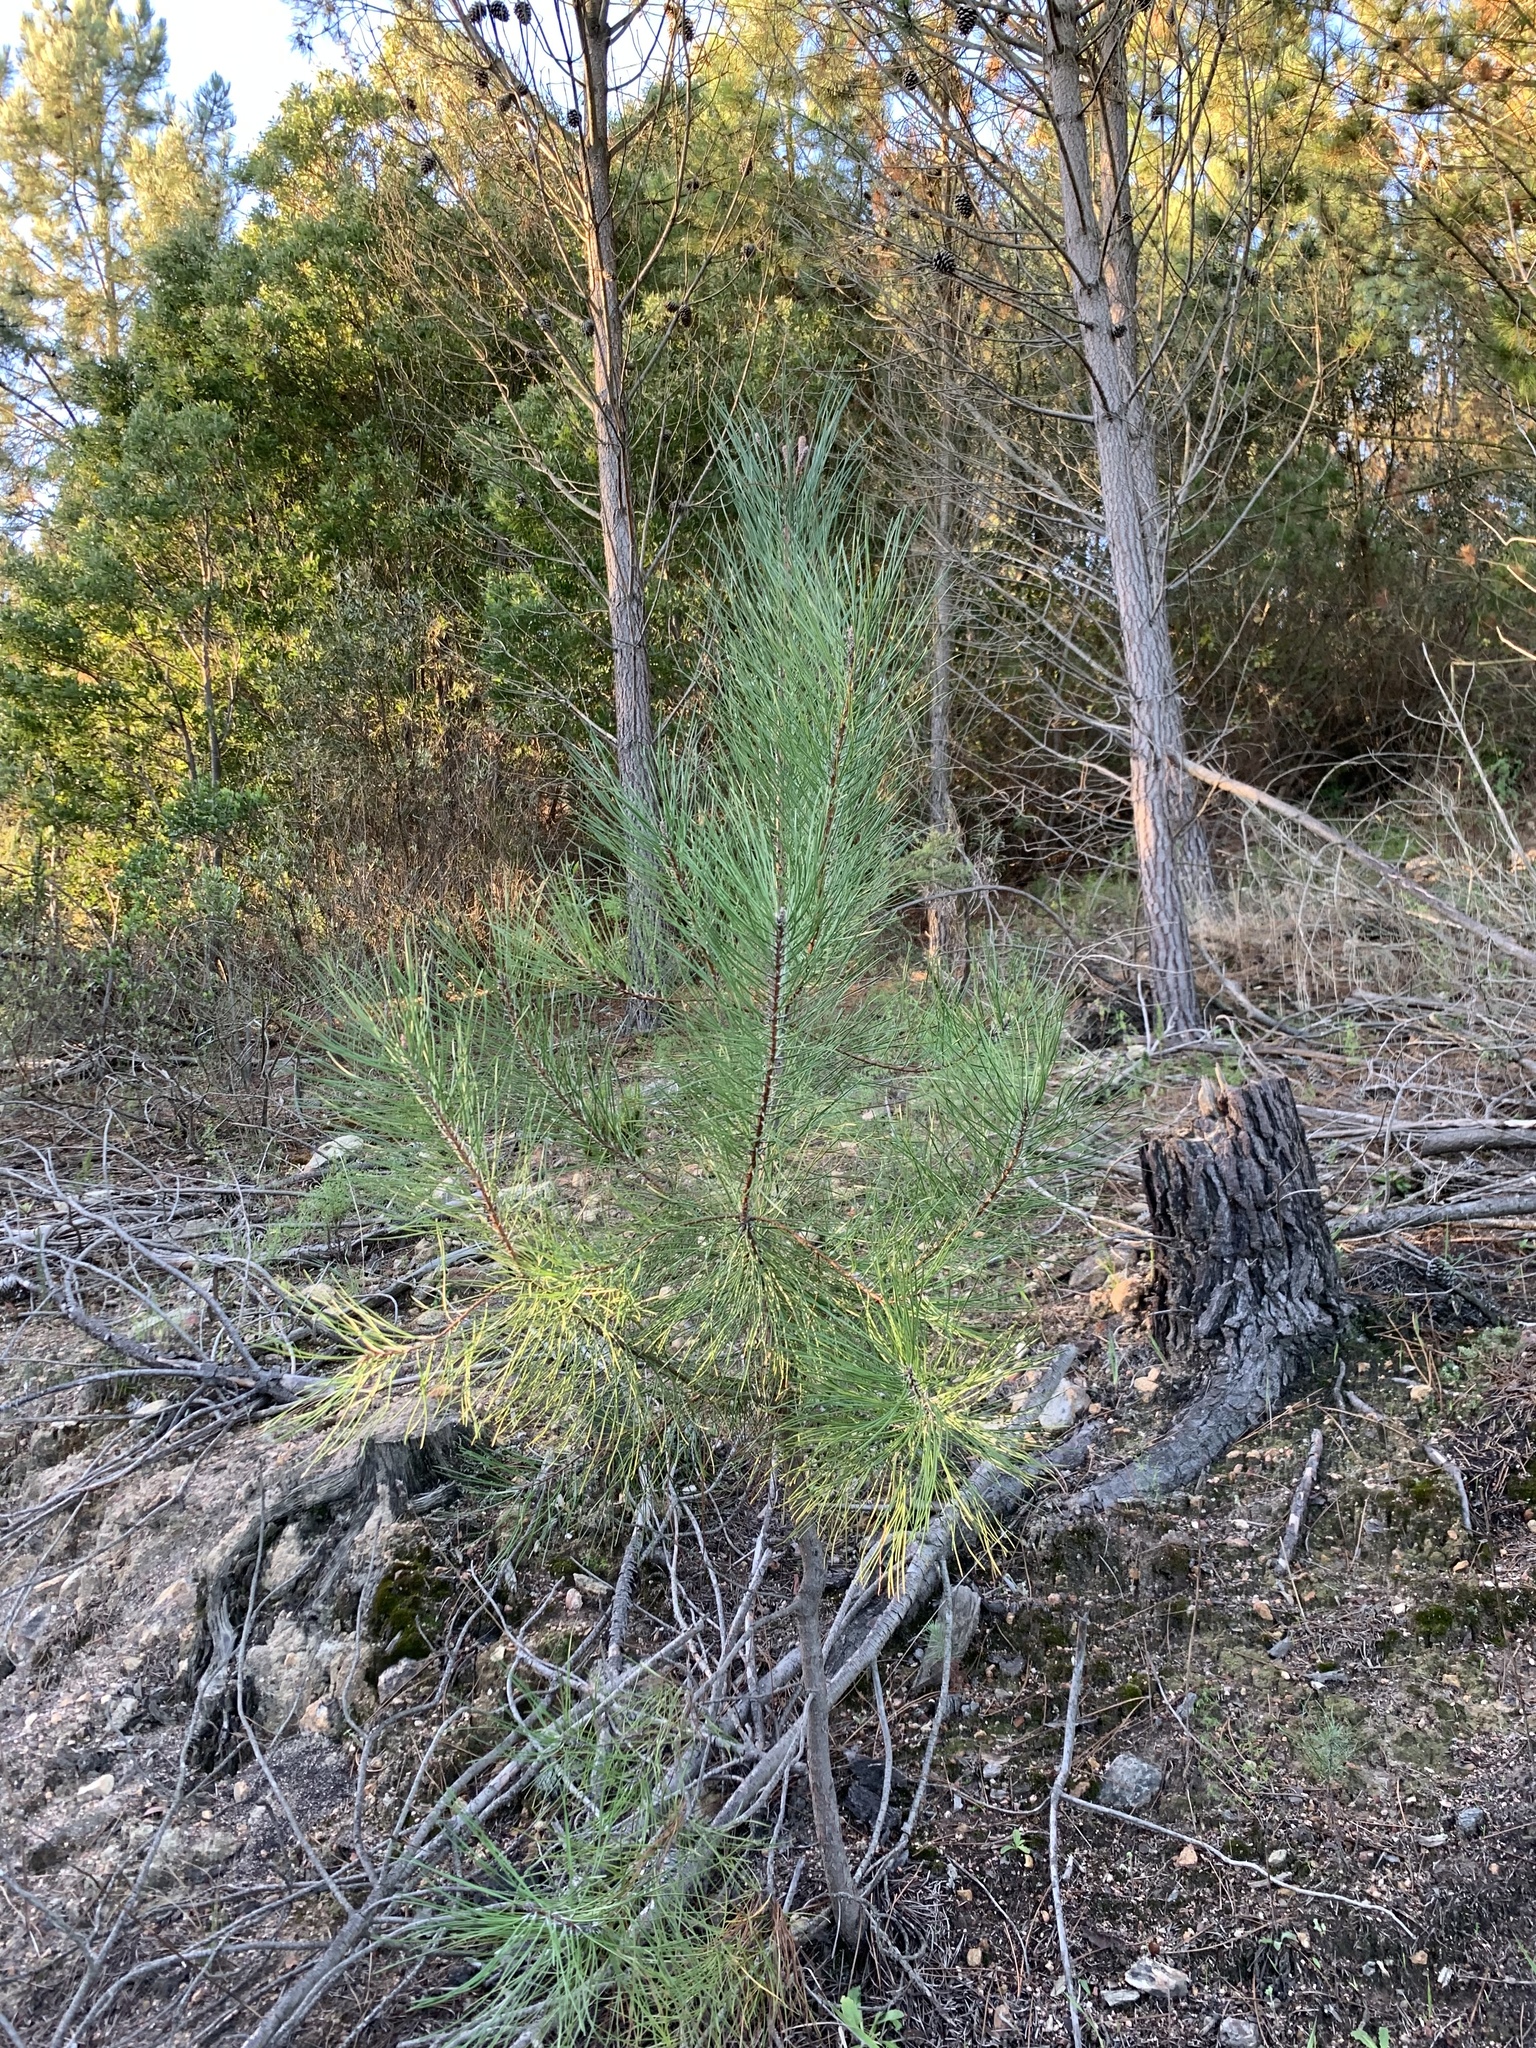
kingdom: Plantae
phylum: Tracheophyta
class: Pinopsida
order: Pinales
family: Pinaceae
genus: Pinus
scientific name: Pinus pinaster
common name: Maritime pine
